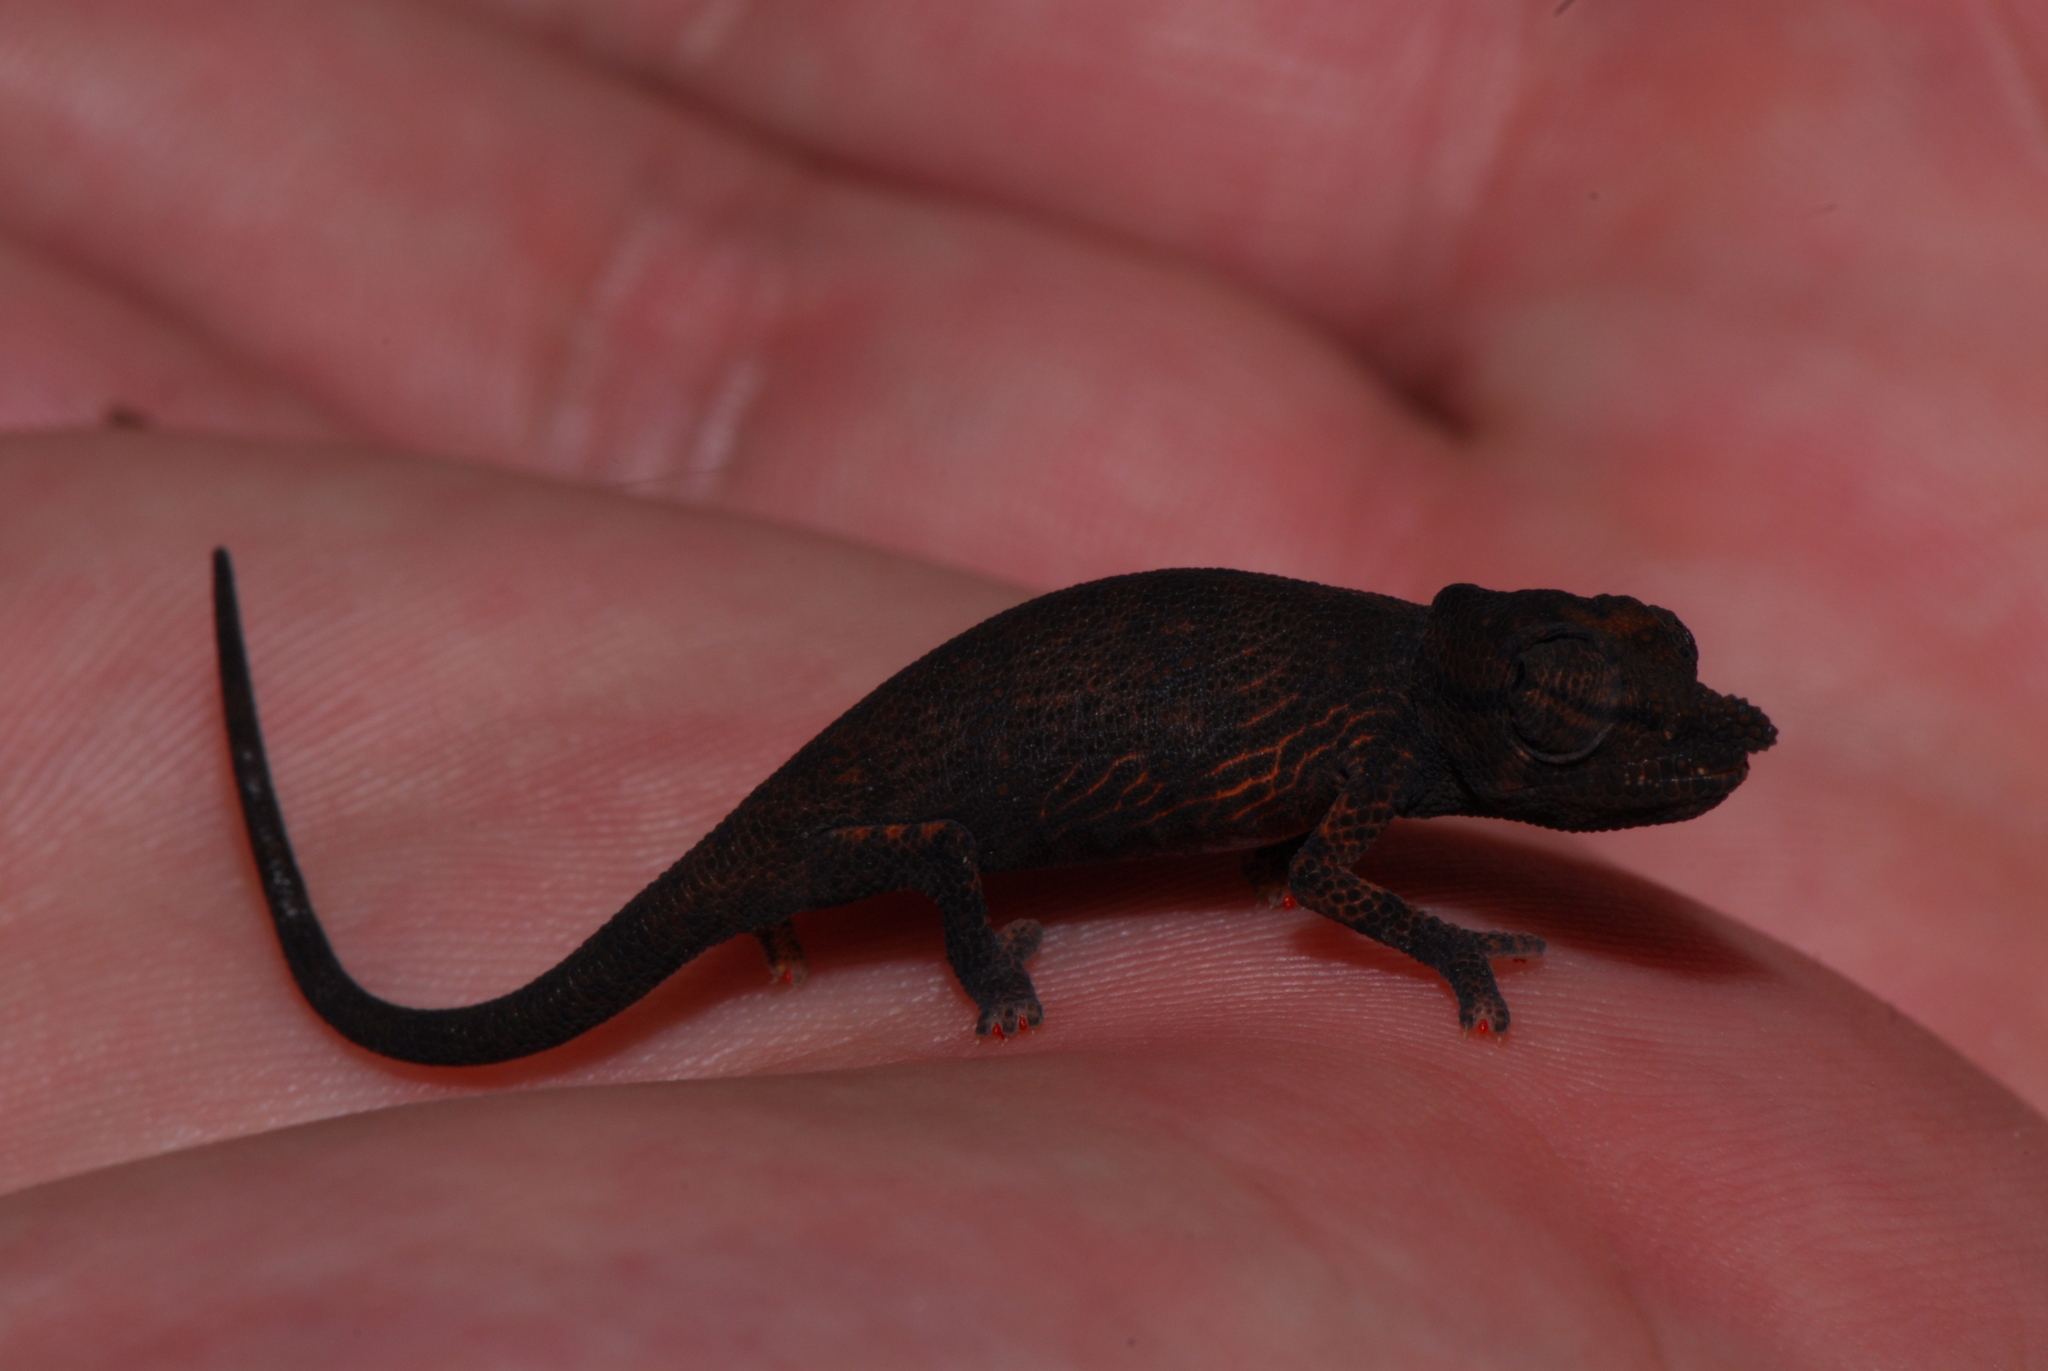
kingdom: Animalia
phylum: Chordata
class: Squamata
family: Chamaeleonidae
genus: Calumma
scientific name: Calumma tjiasmantoi
